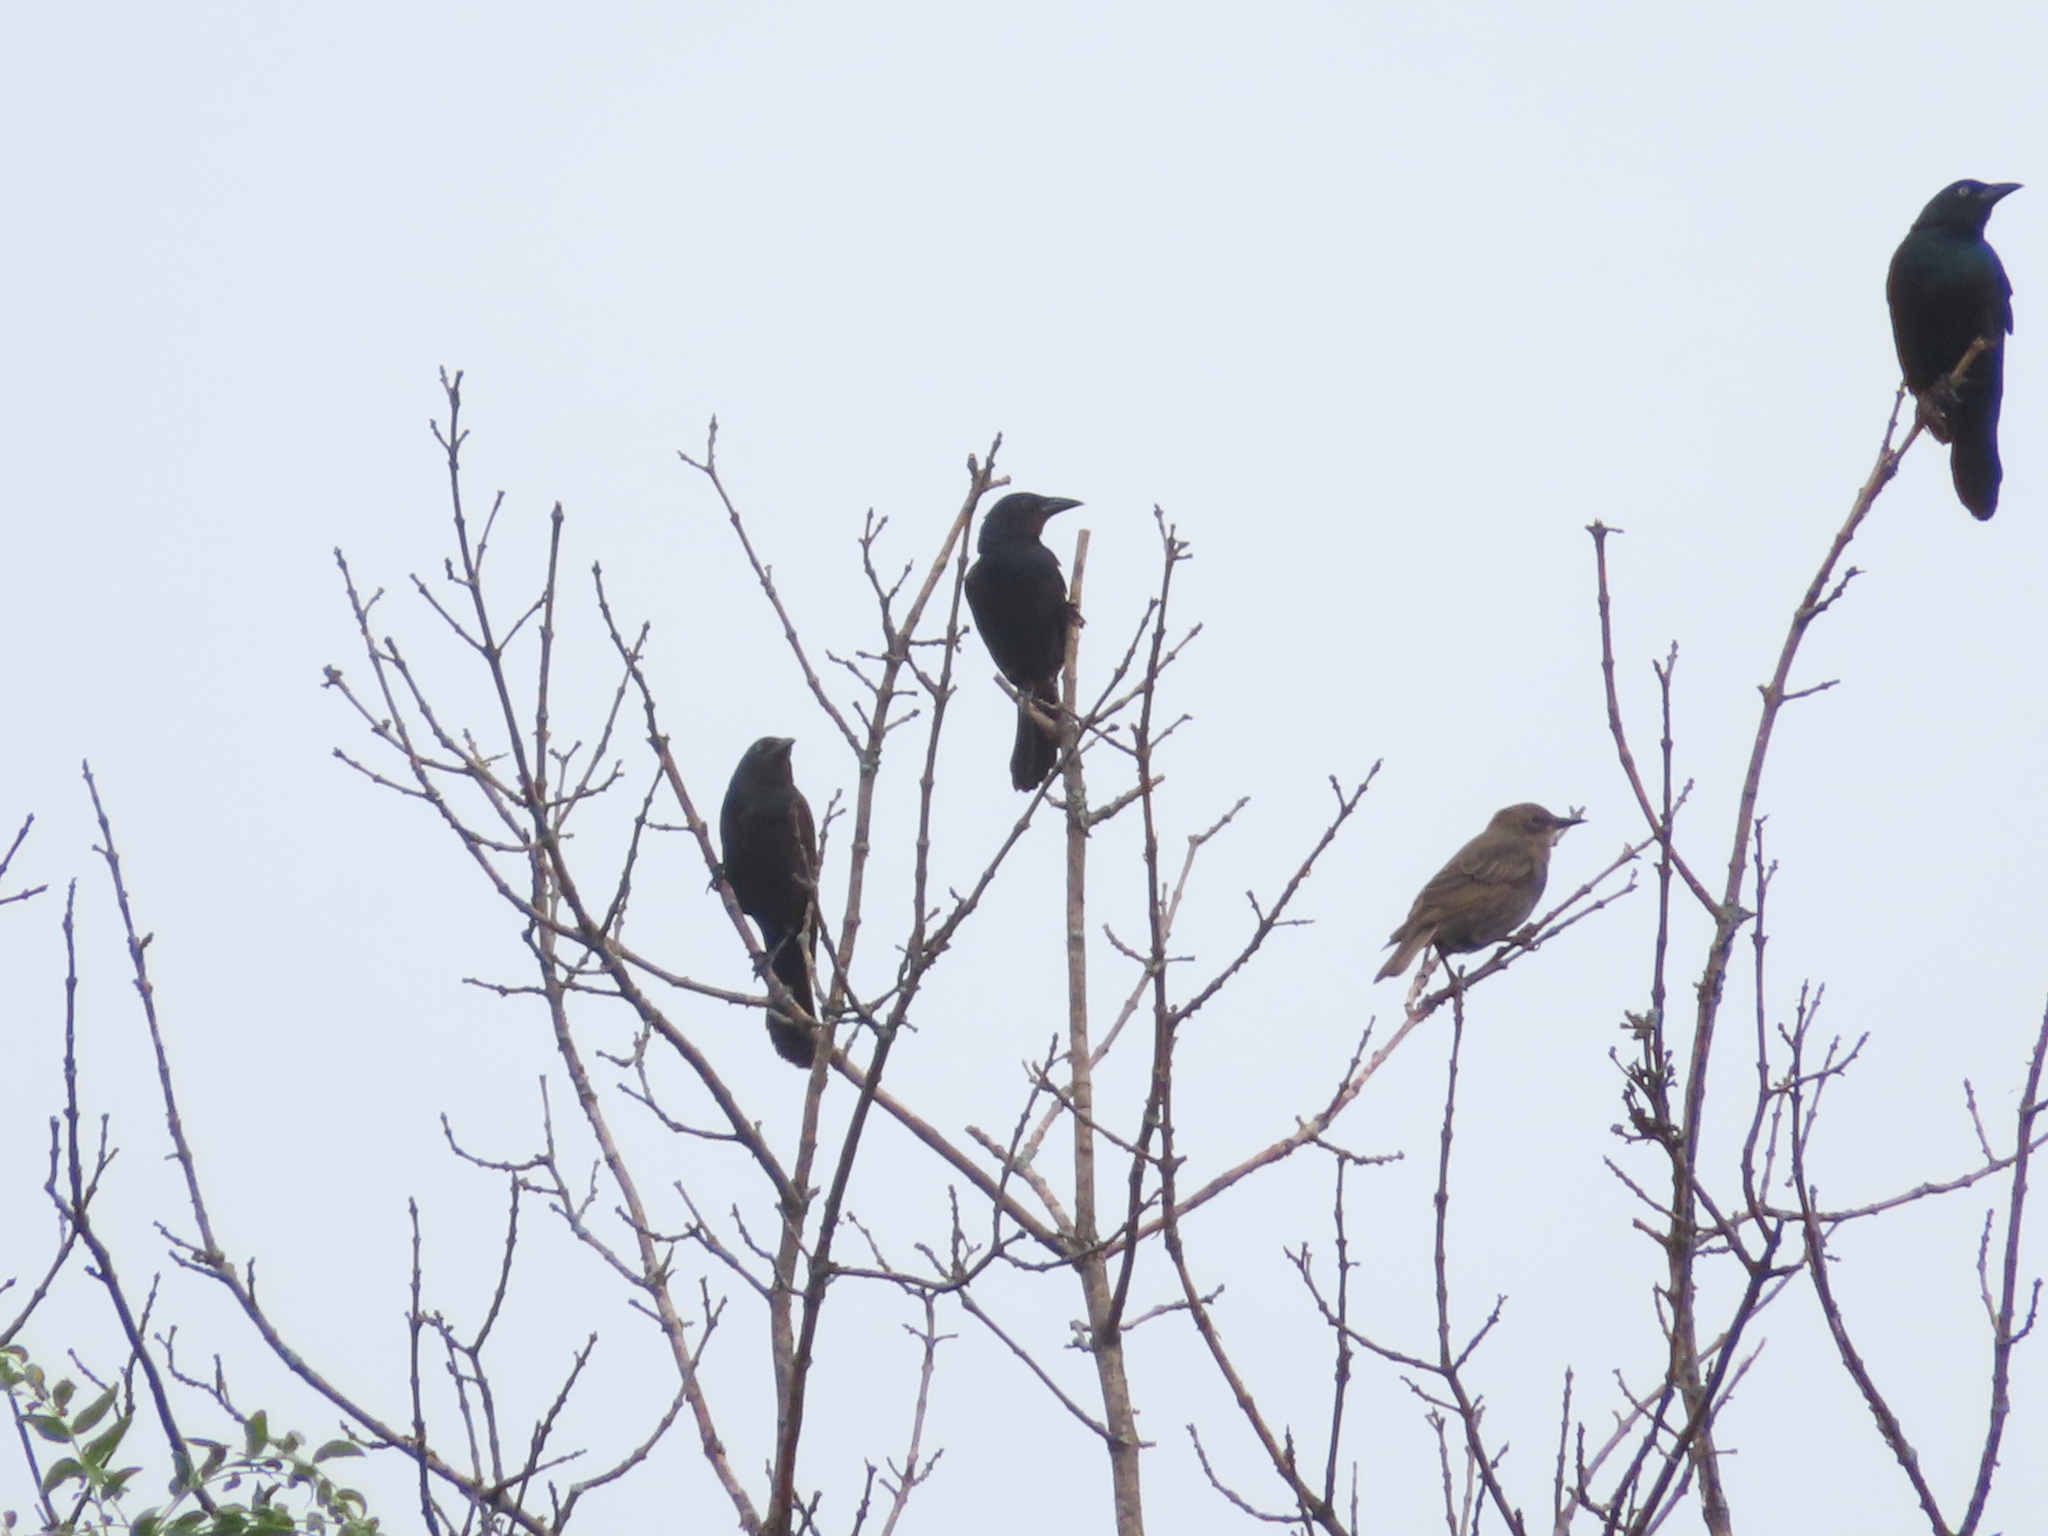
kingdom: Animalia
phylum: Chordata
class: Aves
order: Passeriformes
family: Icteridae
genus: Quiscalus
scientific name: Quiscalus quiscula
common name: Common grackle
